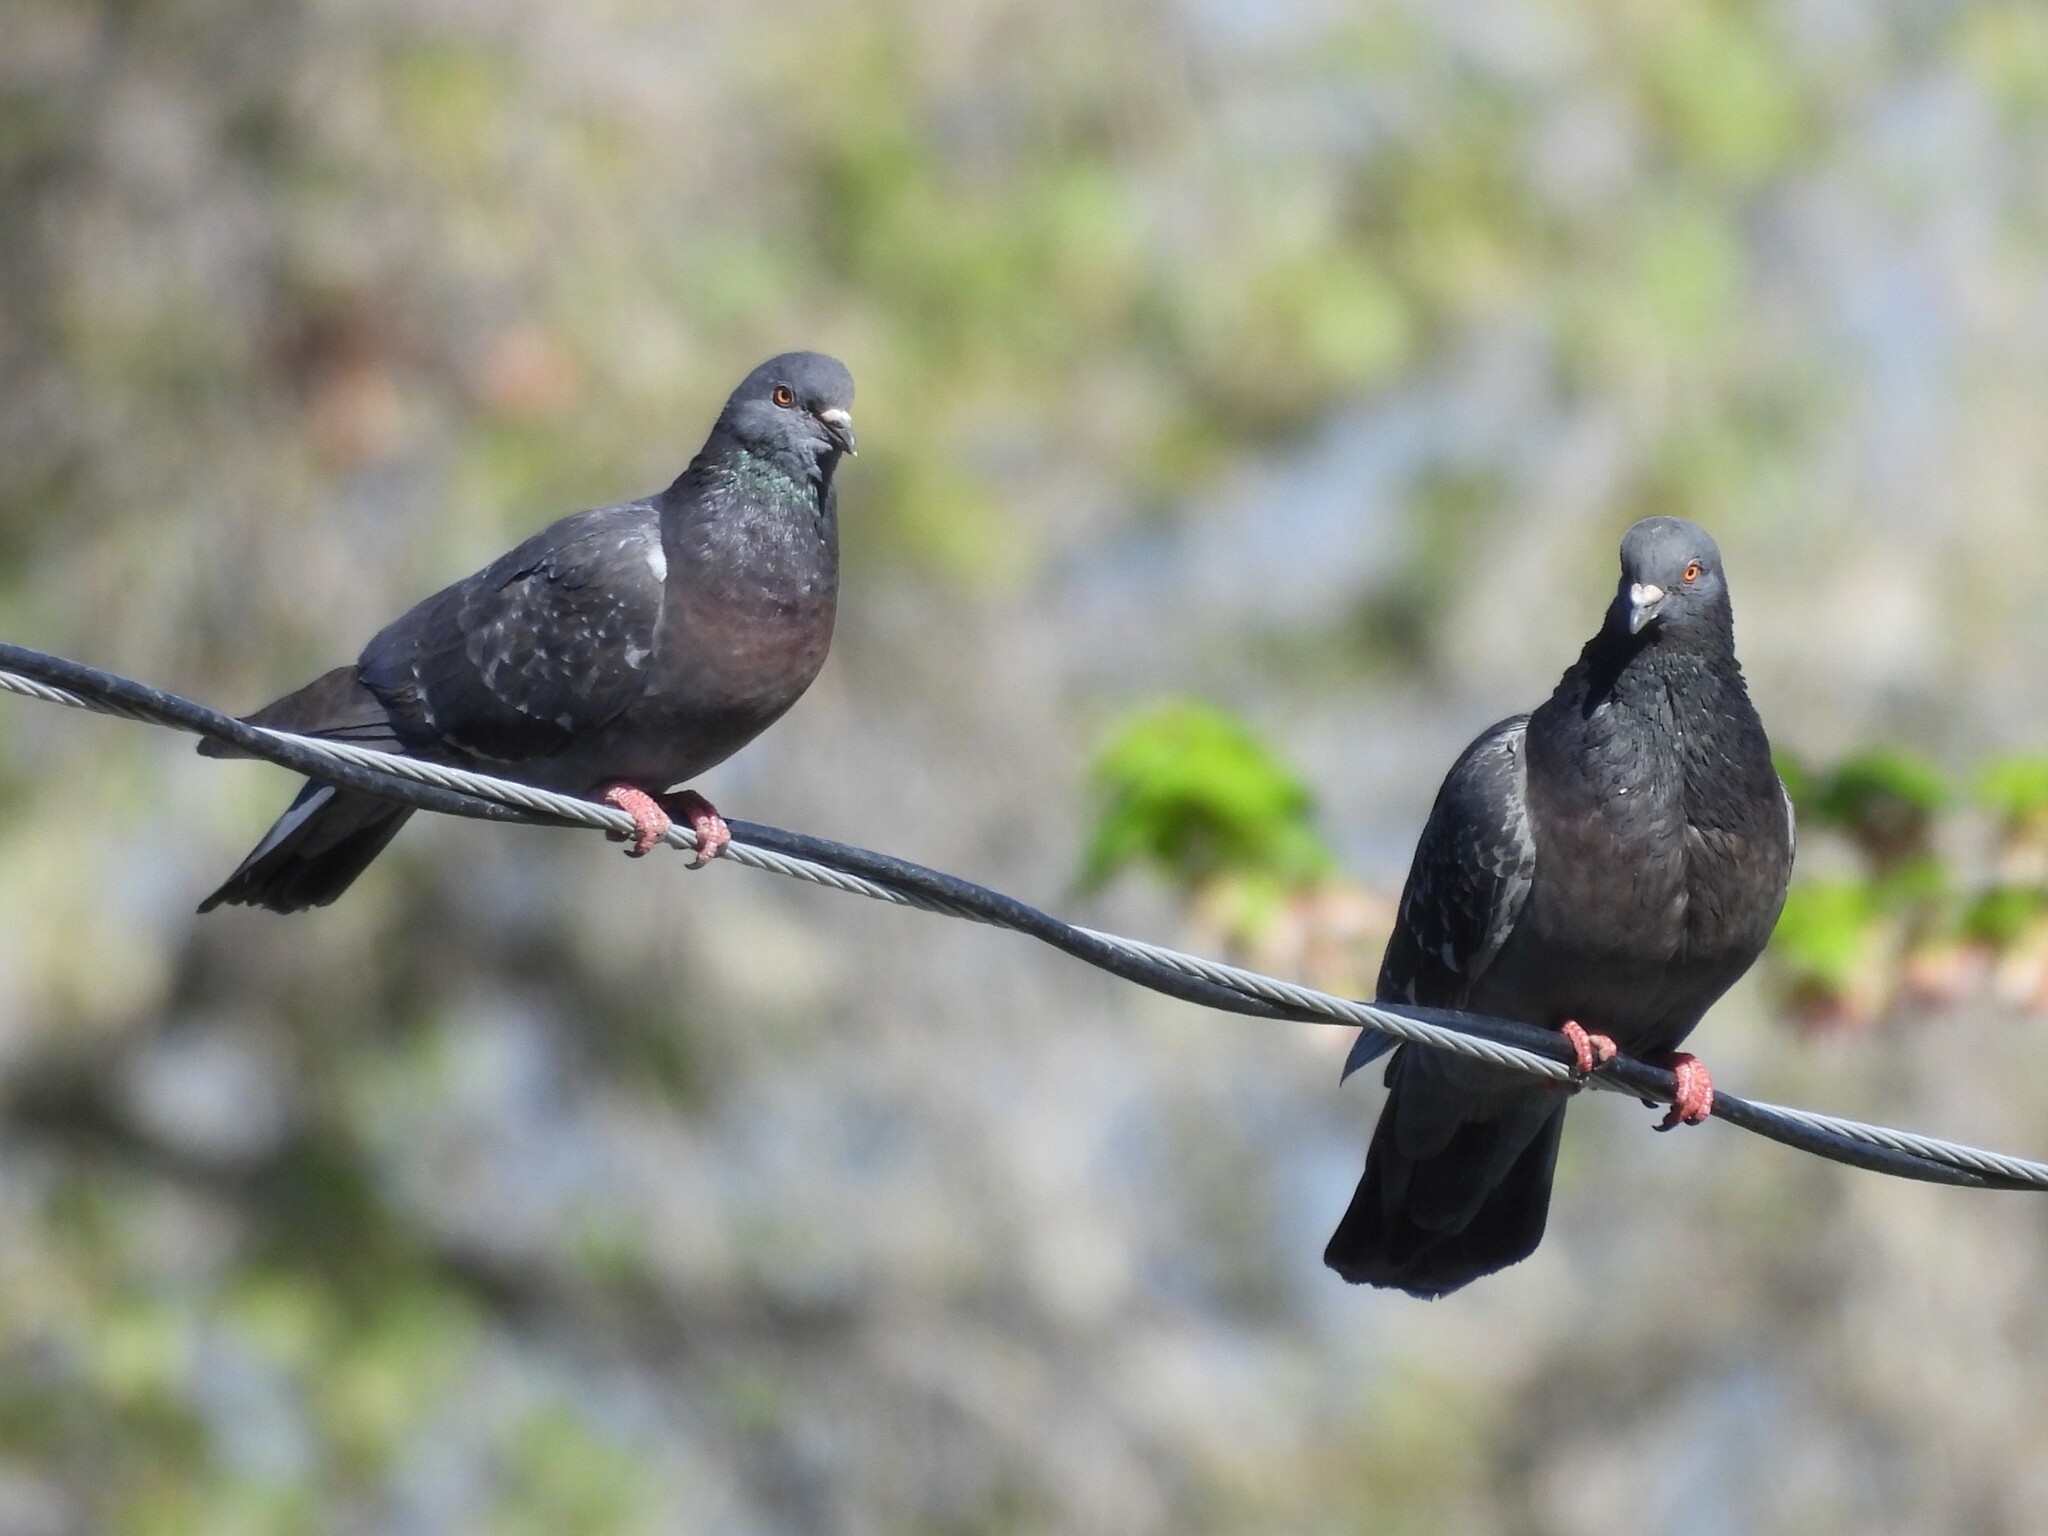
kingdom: Animalia
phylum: Chordata
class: Aves
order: Columbiformes
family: Columbidae
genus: Columba
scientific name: Columba livia
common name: Rock pigeon
